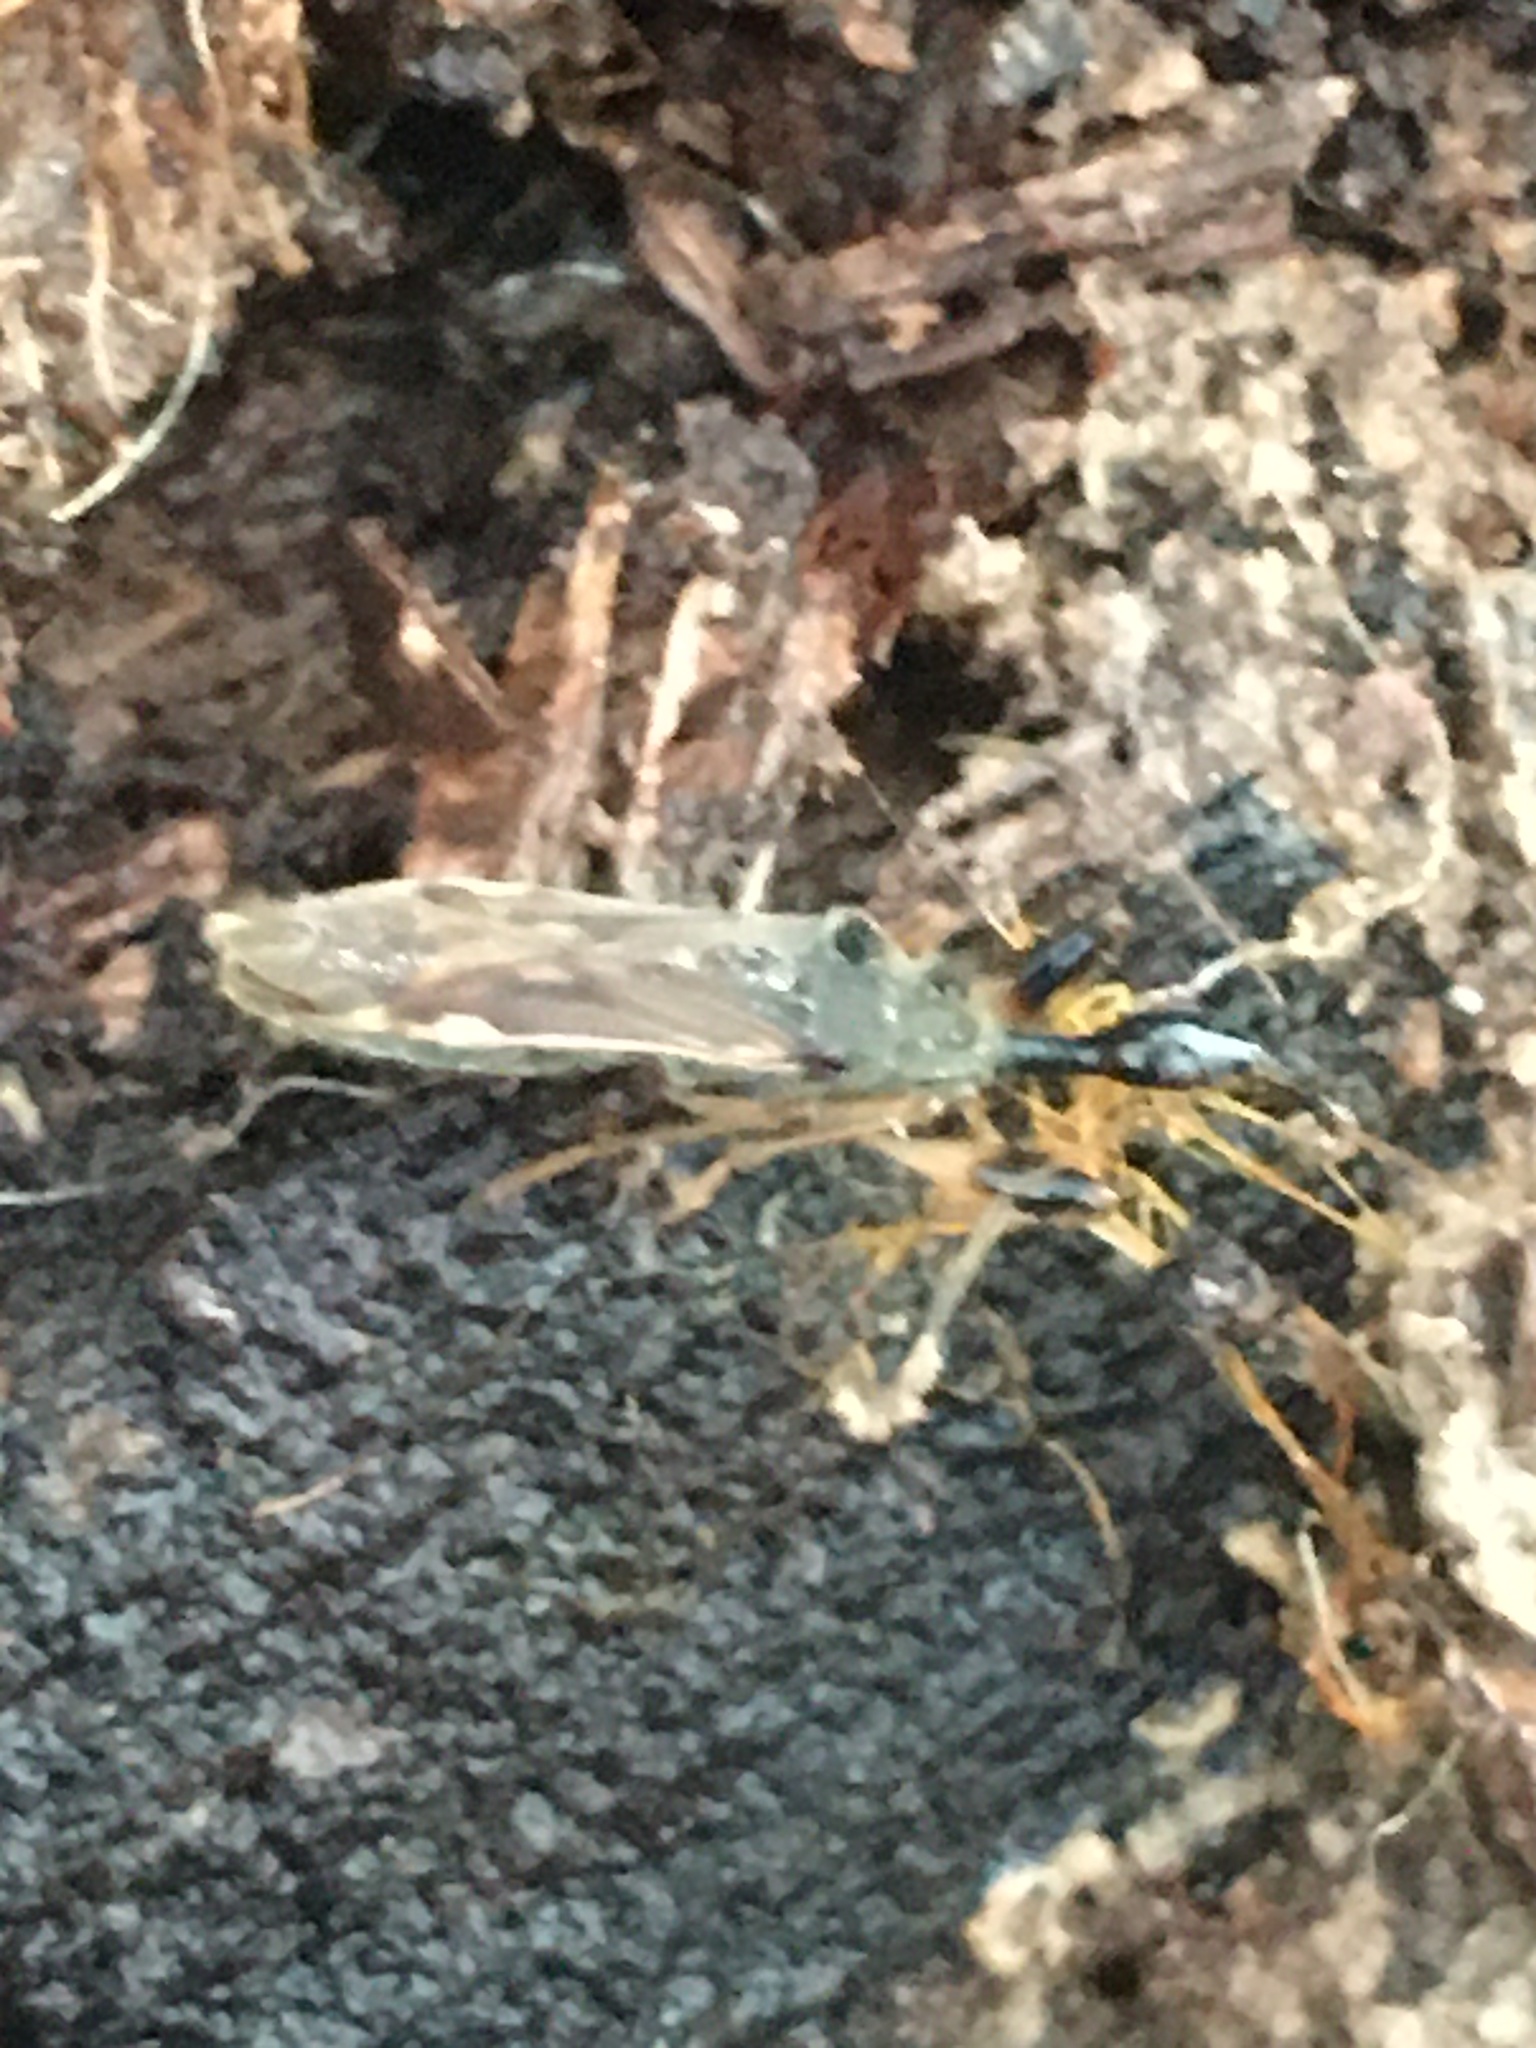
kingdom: Animalia
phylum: Arthropoda
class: Insecta
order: Hemiptera
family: Rhyparochromidae
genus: Myodocha
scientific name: Myodocha serripes
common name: Long-necked seed bug
